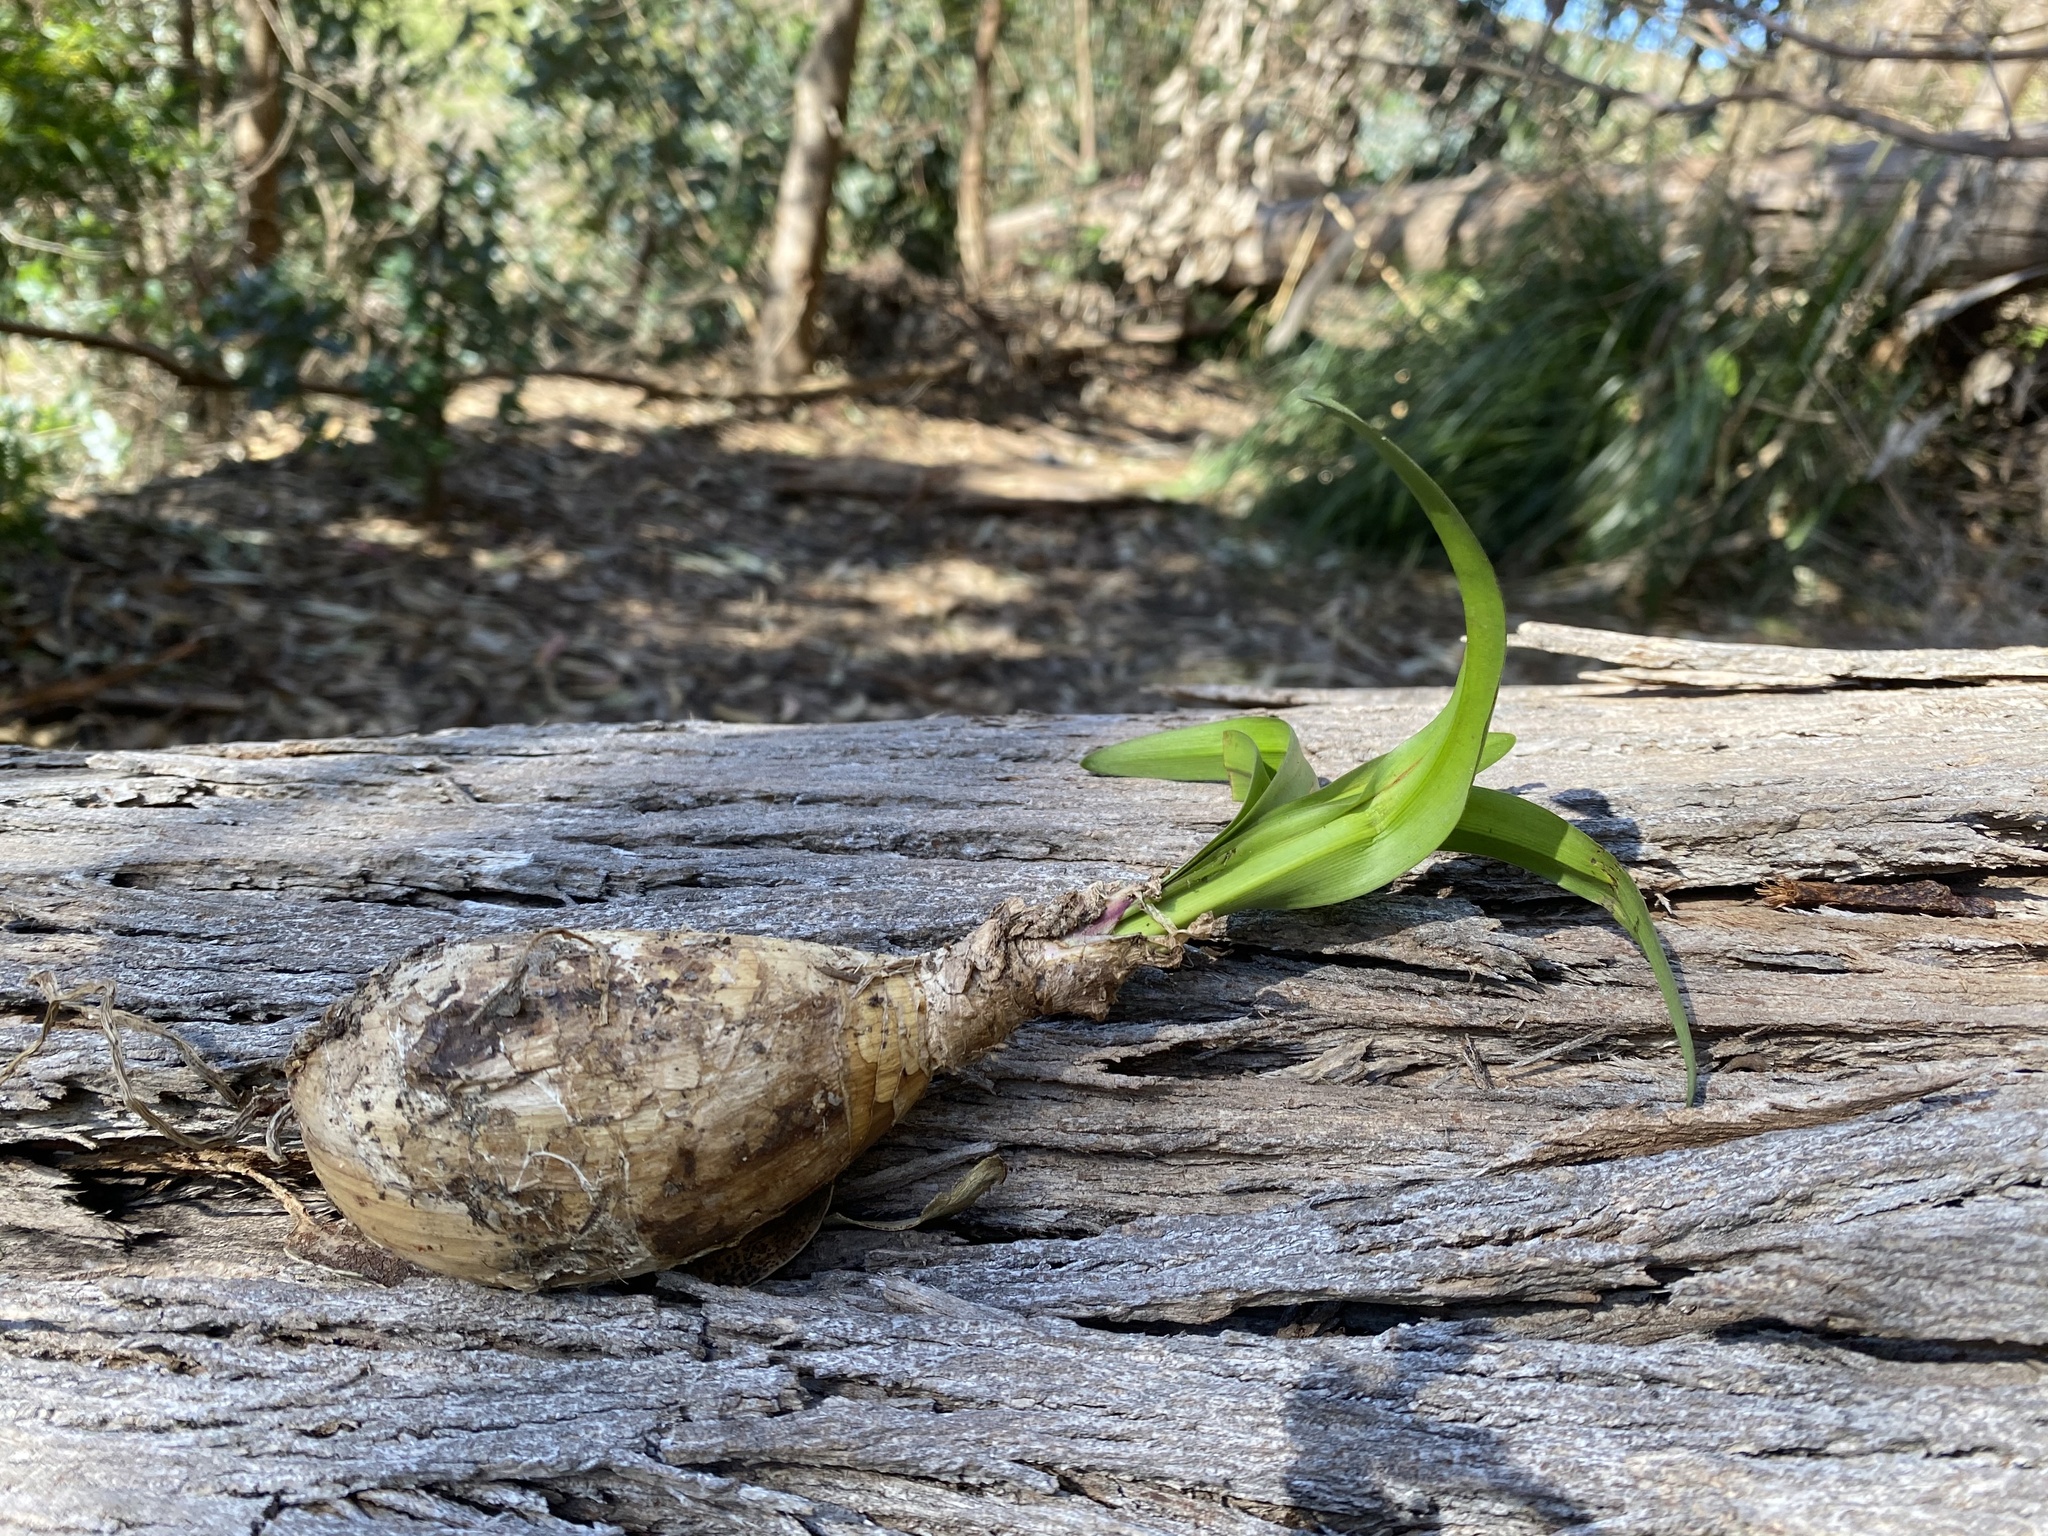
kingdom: Plantae
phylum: Tracheophyta
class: Liliopsida
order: Asparagales
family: Asparagaceae
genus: Chlorogalum
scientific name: Chlorogalum pomeridianum
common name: Amole
